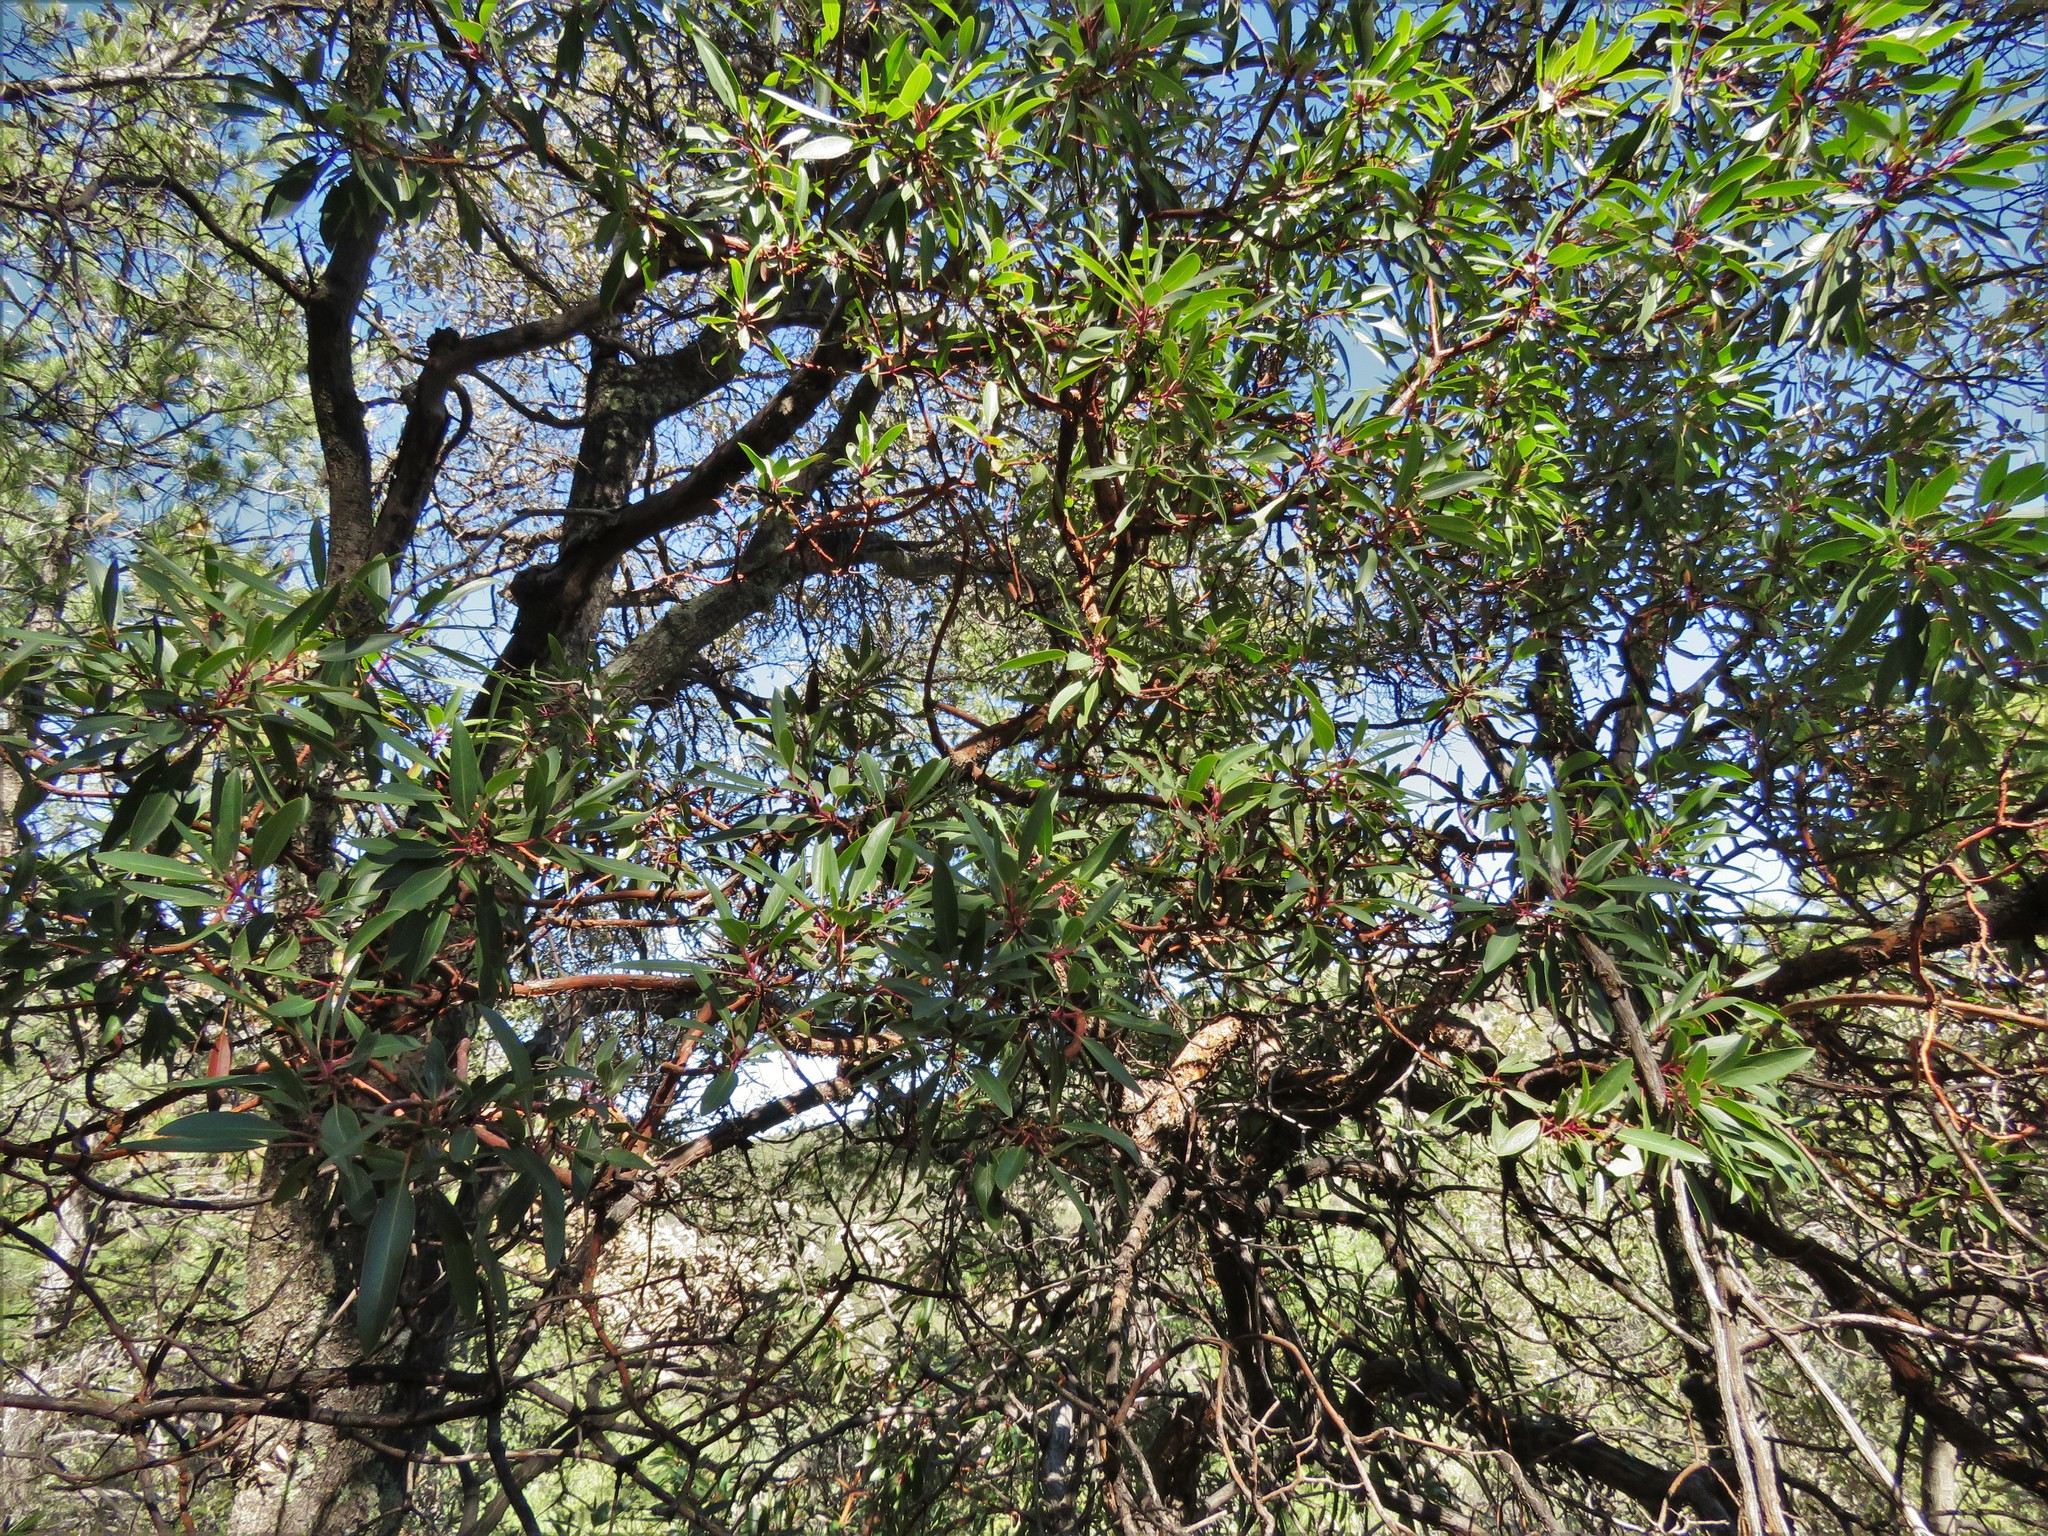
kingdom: Plantae
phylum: Tracheophyta
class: Magnoliopsida
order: Ericales
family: Ericaceae
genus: Arbutus
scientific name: Arbutus arizonica
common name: Arizona madrone
